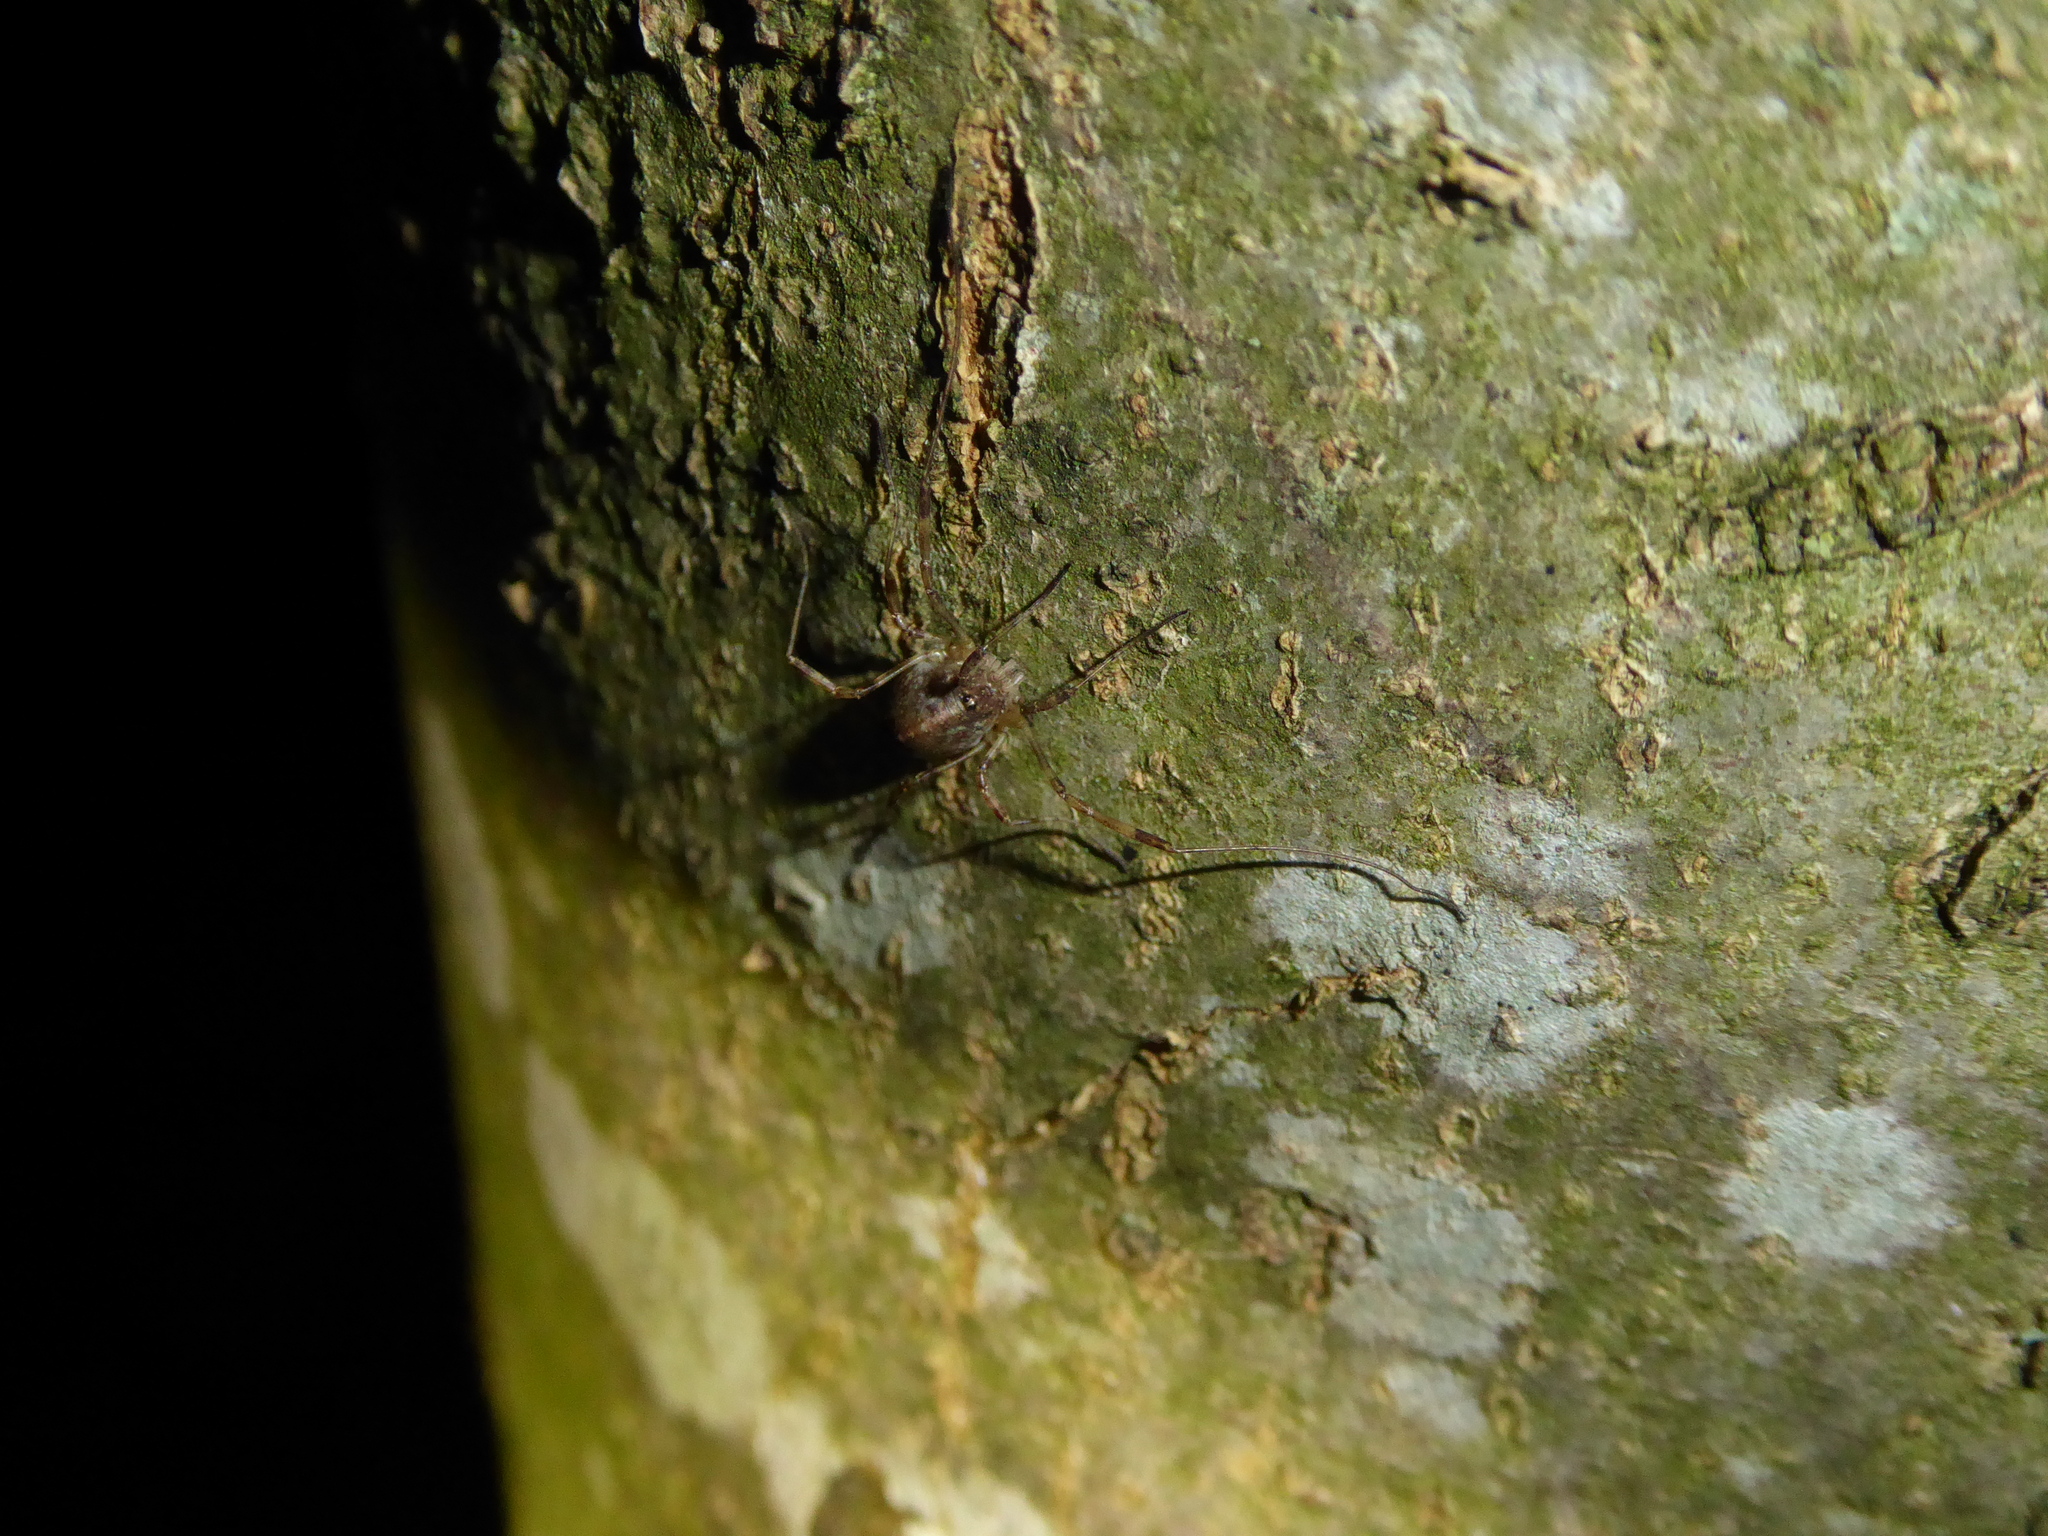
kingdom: Animalia
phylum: Arthropoda
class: Arachnida
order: Opiliones
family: Phalangiidae
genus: Paroligolophus
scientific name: Paroligolophus agrestis
